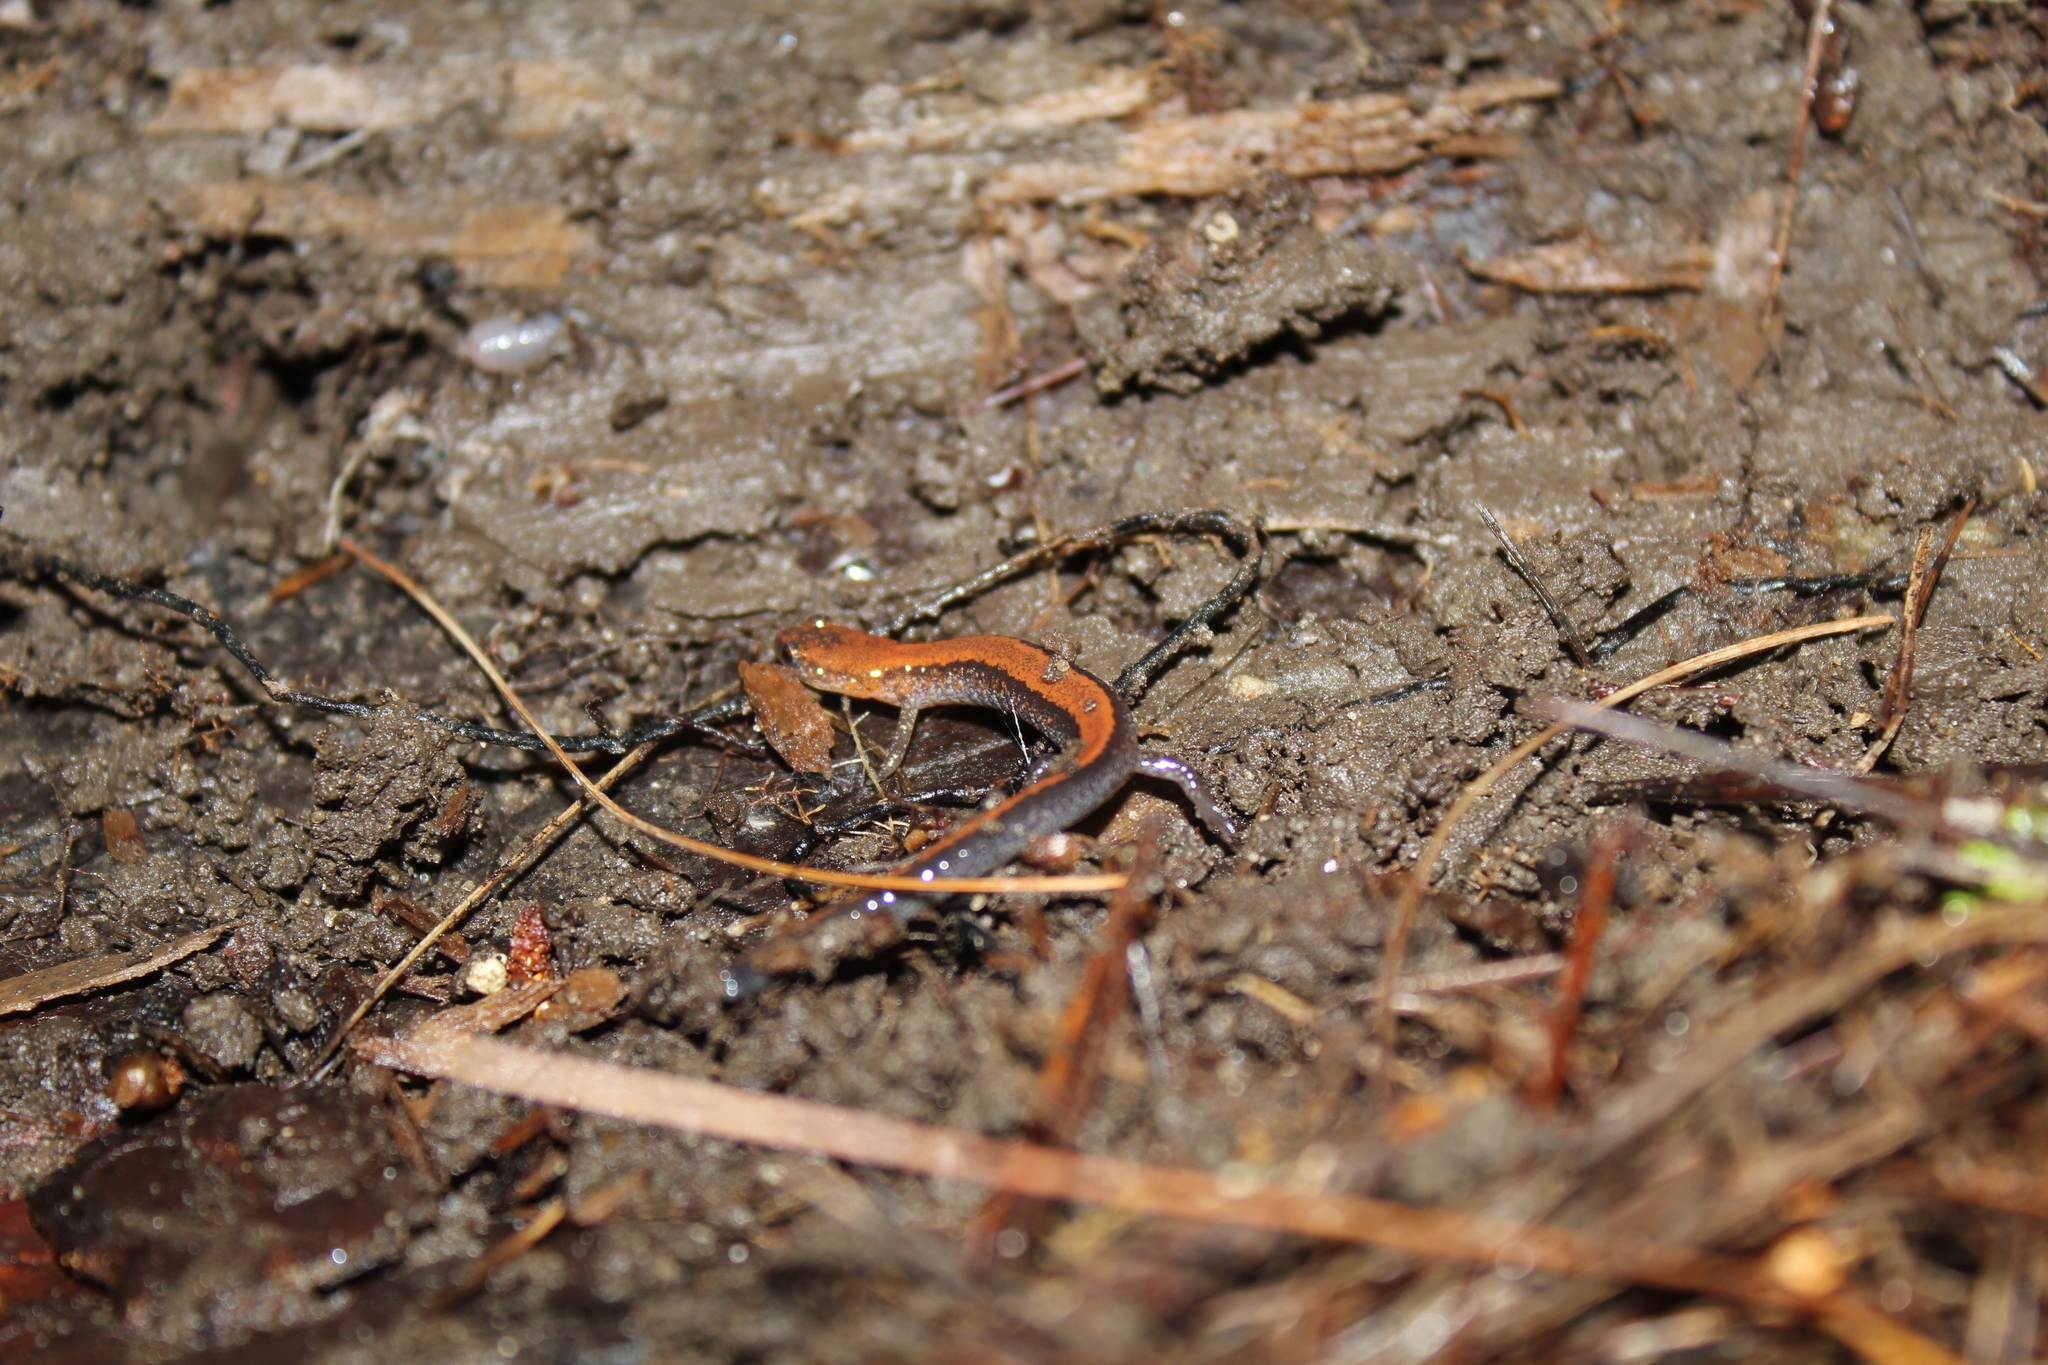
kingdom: Animalia
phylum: Chordata
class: Amphibia
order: Caudata
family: Plethodontidae
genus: Plethodon
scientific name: Plethodon cinereus
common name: Redback salamander
